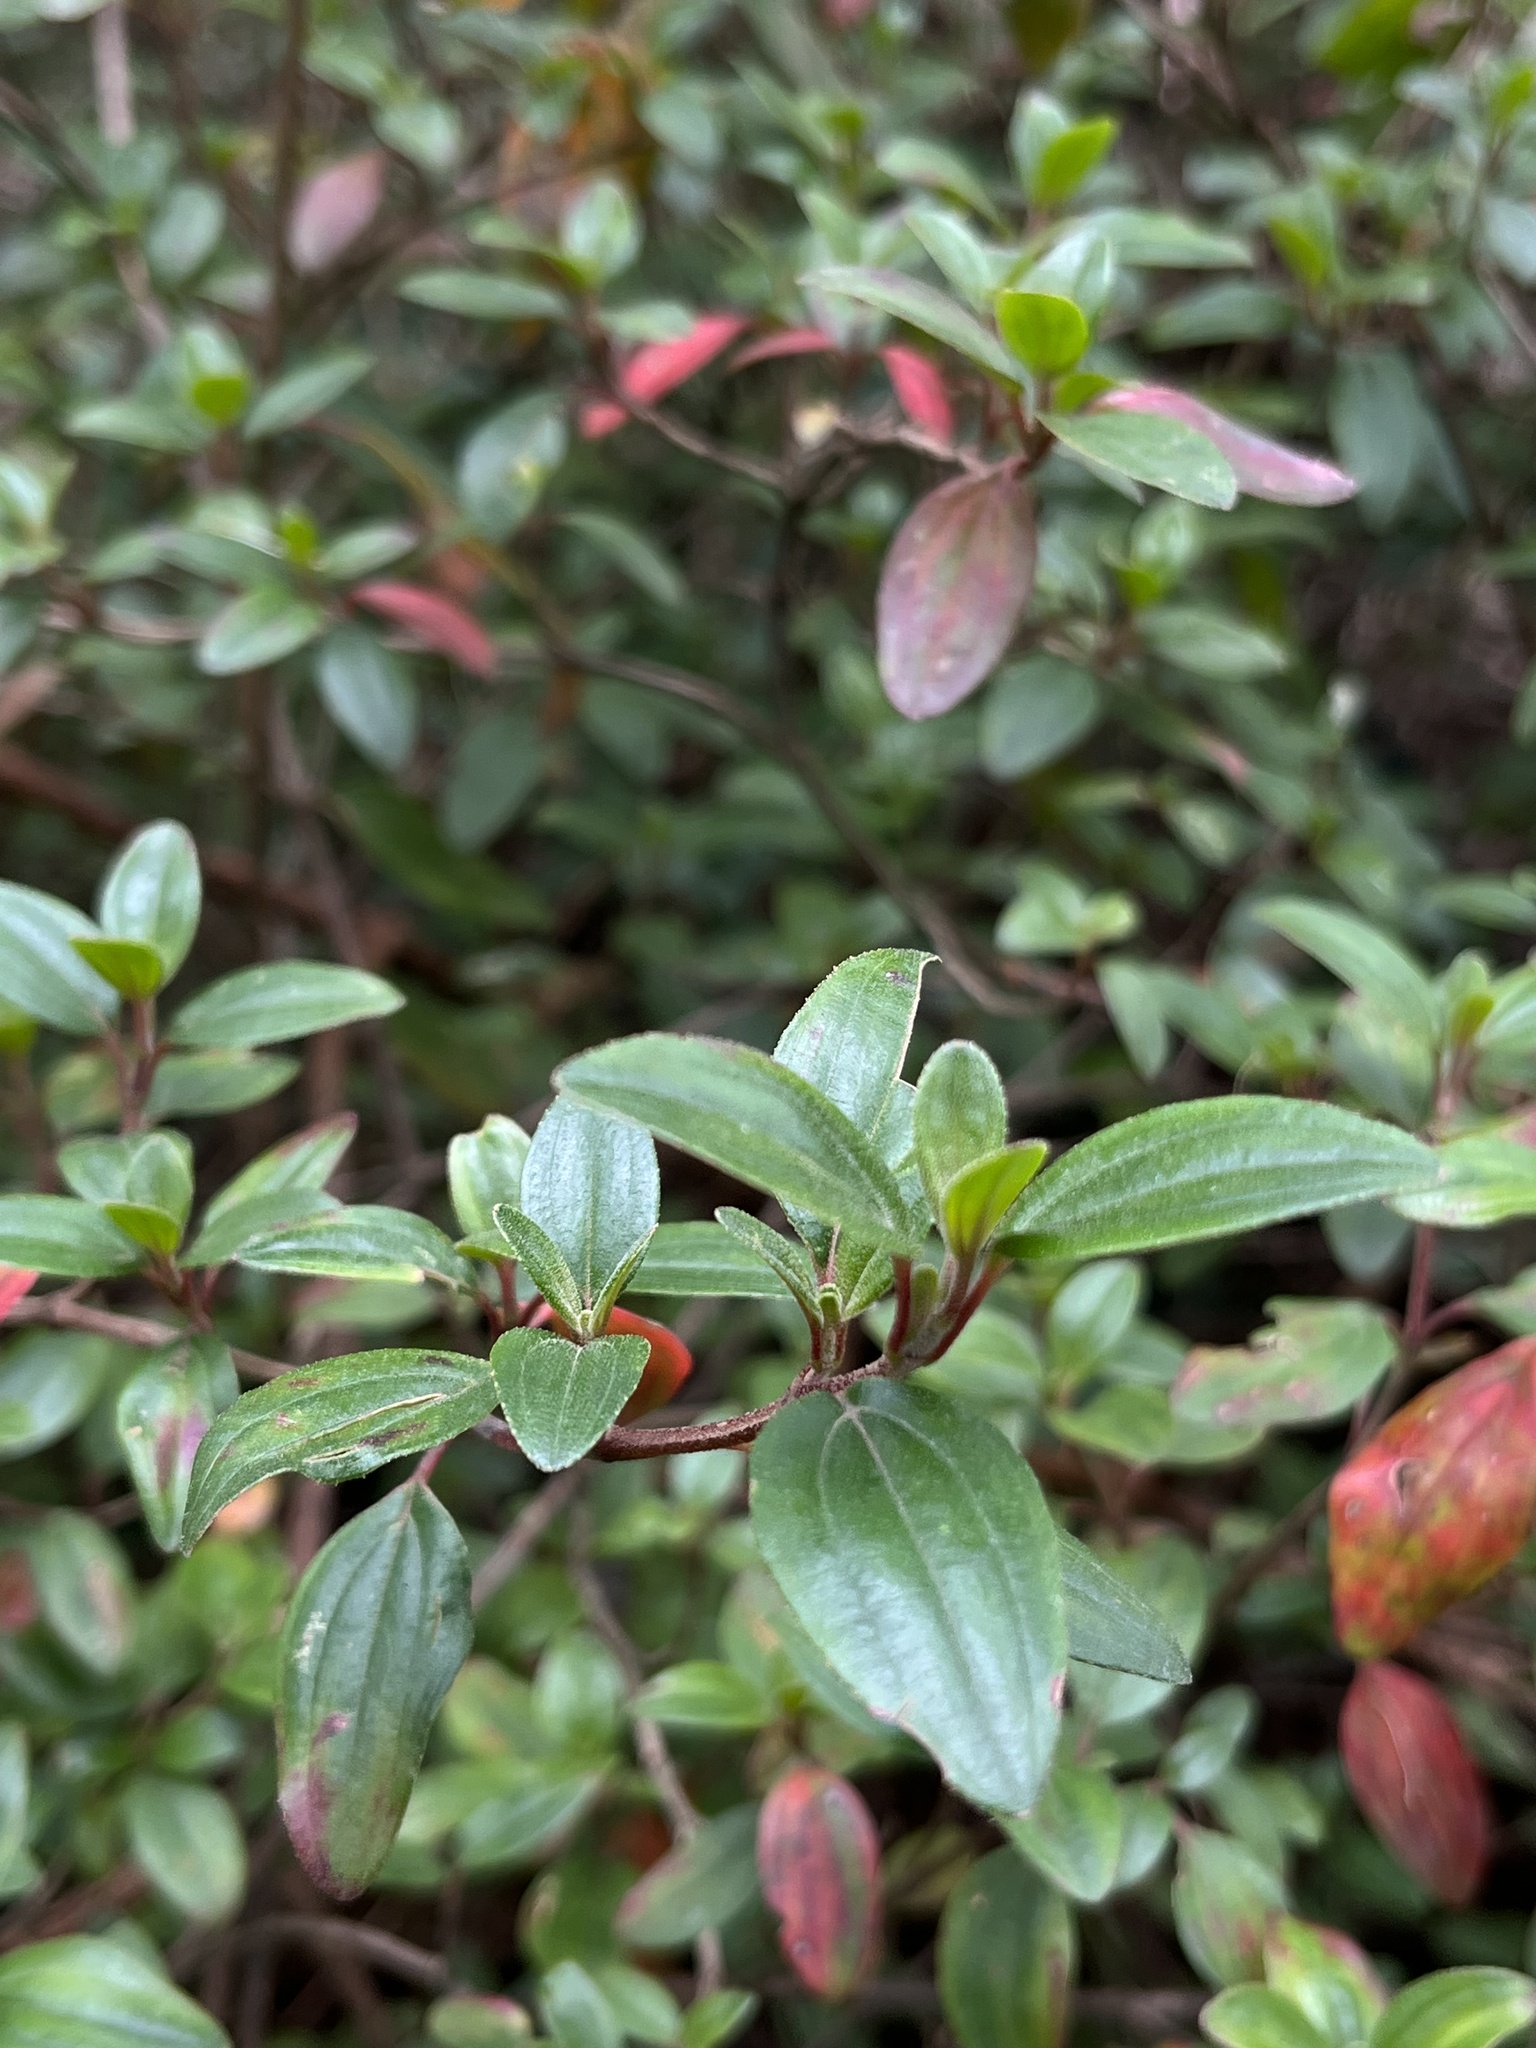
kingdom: Plantae
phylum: Tracheophyta
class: Magnoliopsida
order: Myrtales
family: Melastomataceae
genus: Monochaetum
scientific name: Monochaetum myrtoideum
